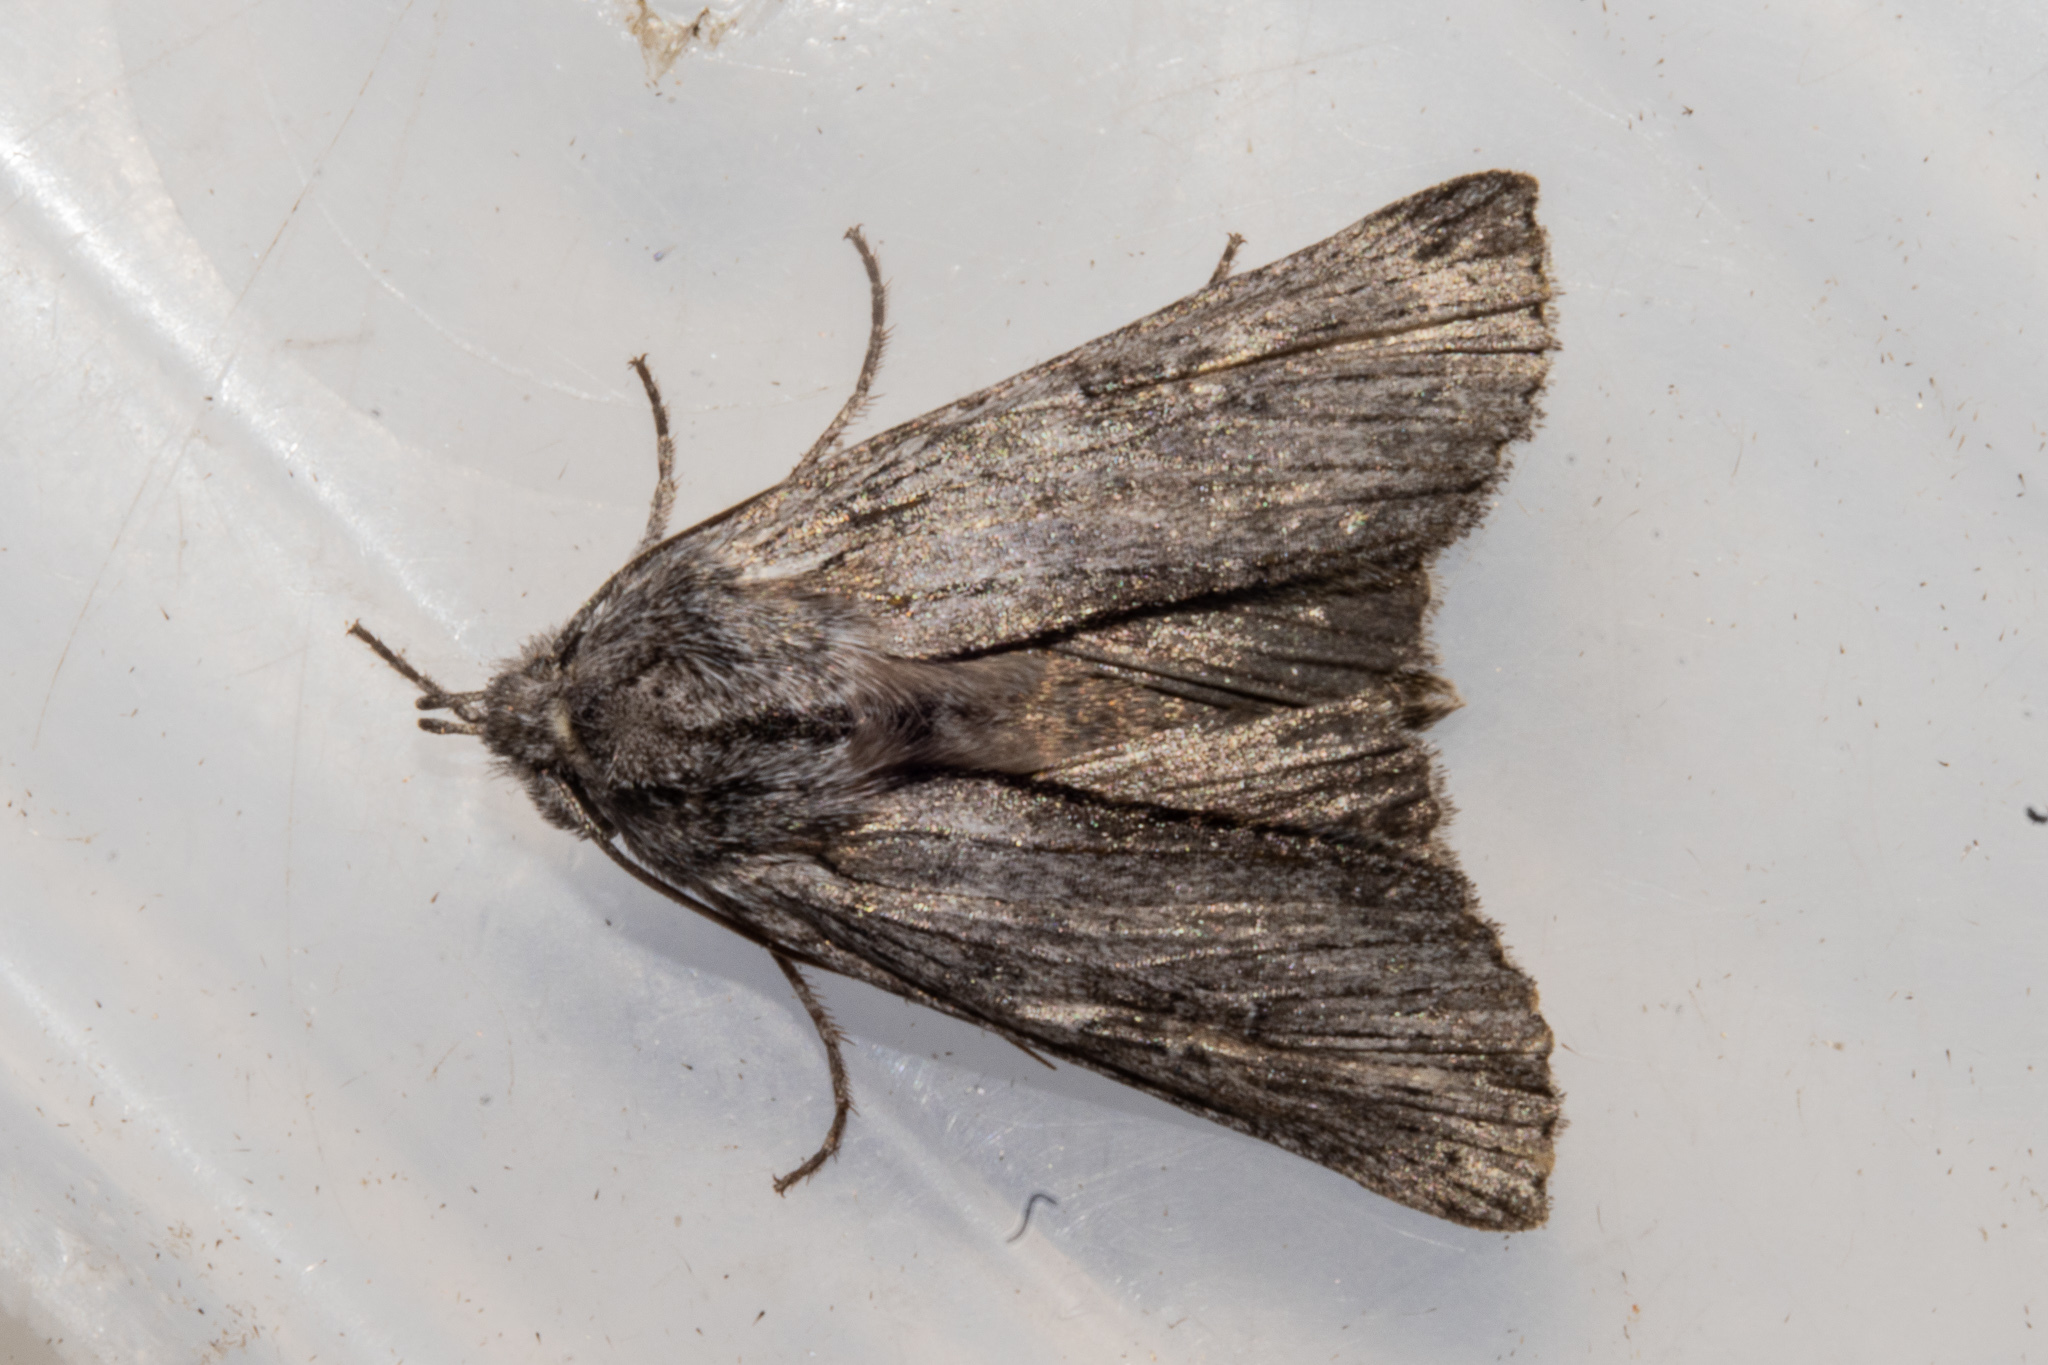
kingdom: Animalia
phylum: Arthropoda
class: Insecta
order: Lepidoptera
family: Noctuidae
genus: Physetica
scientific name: Physetica phricias
